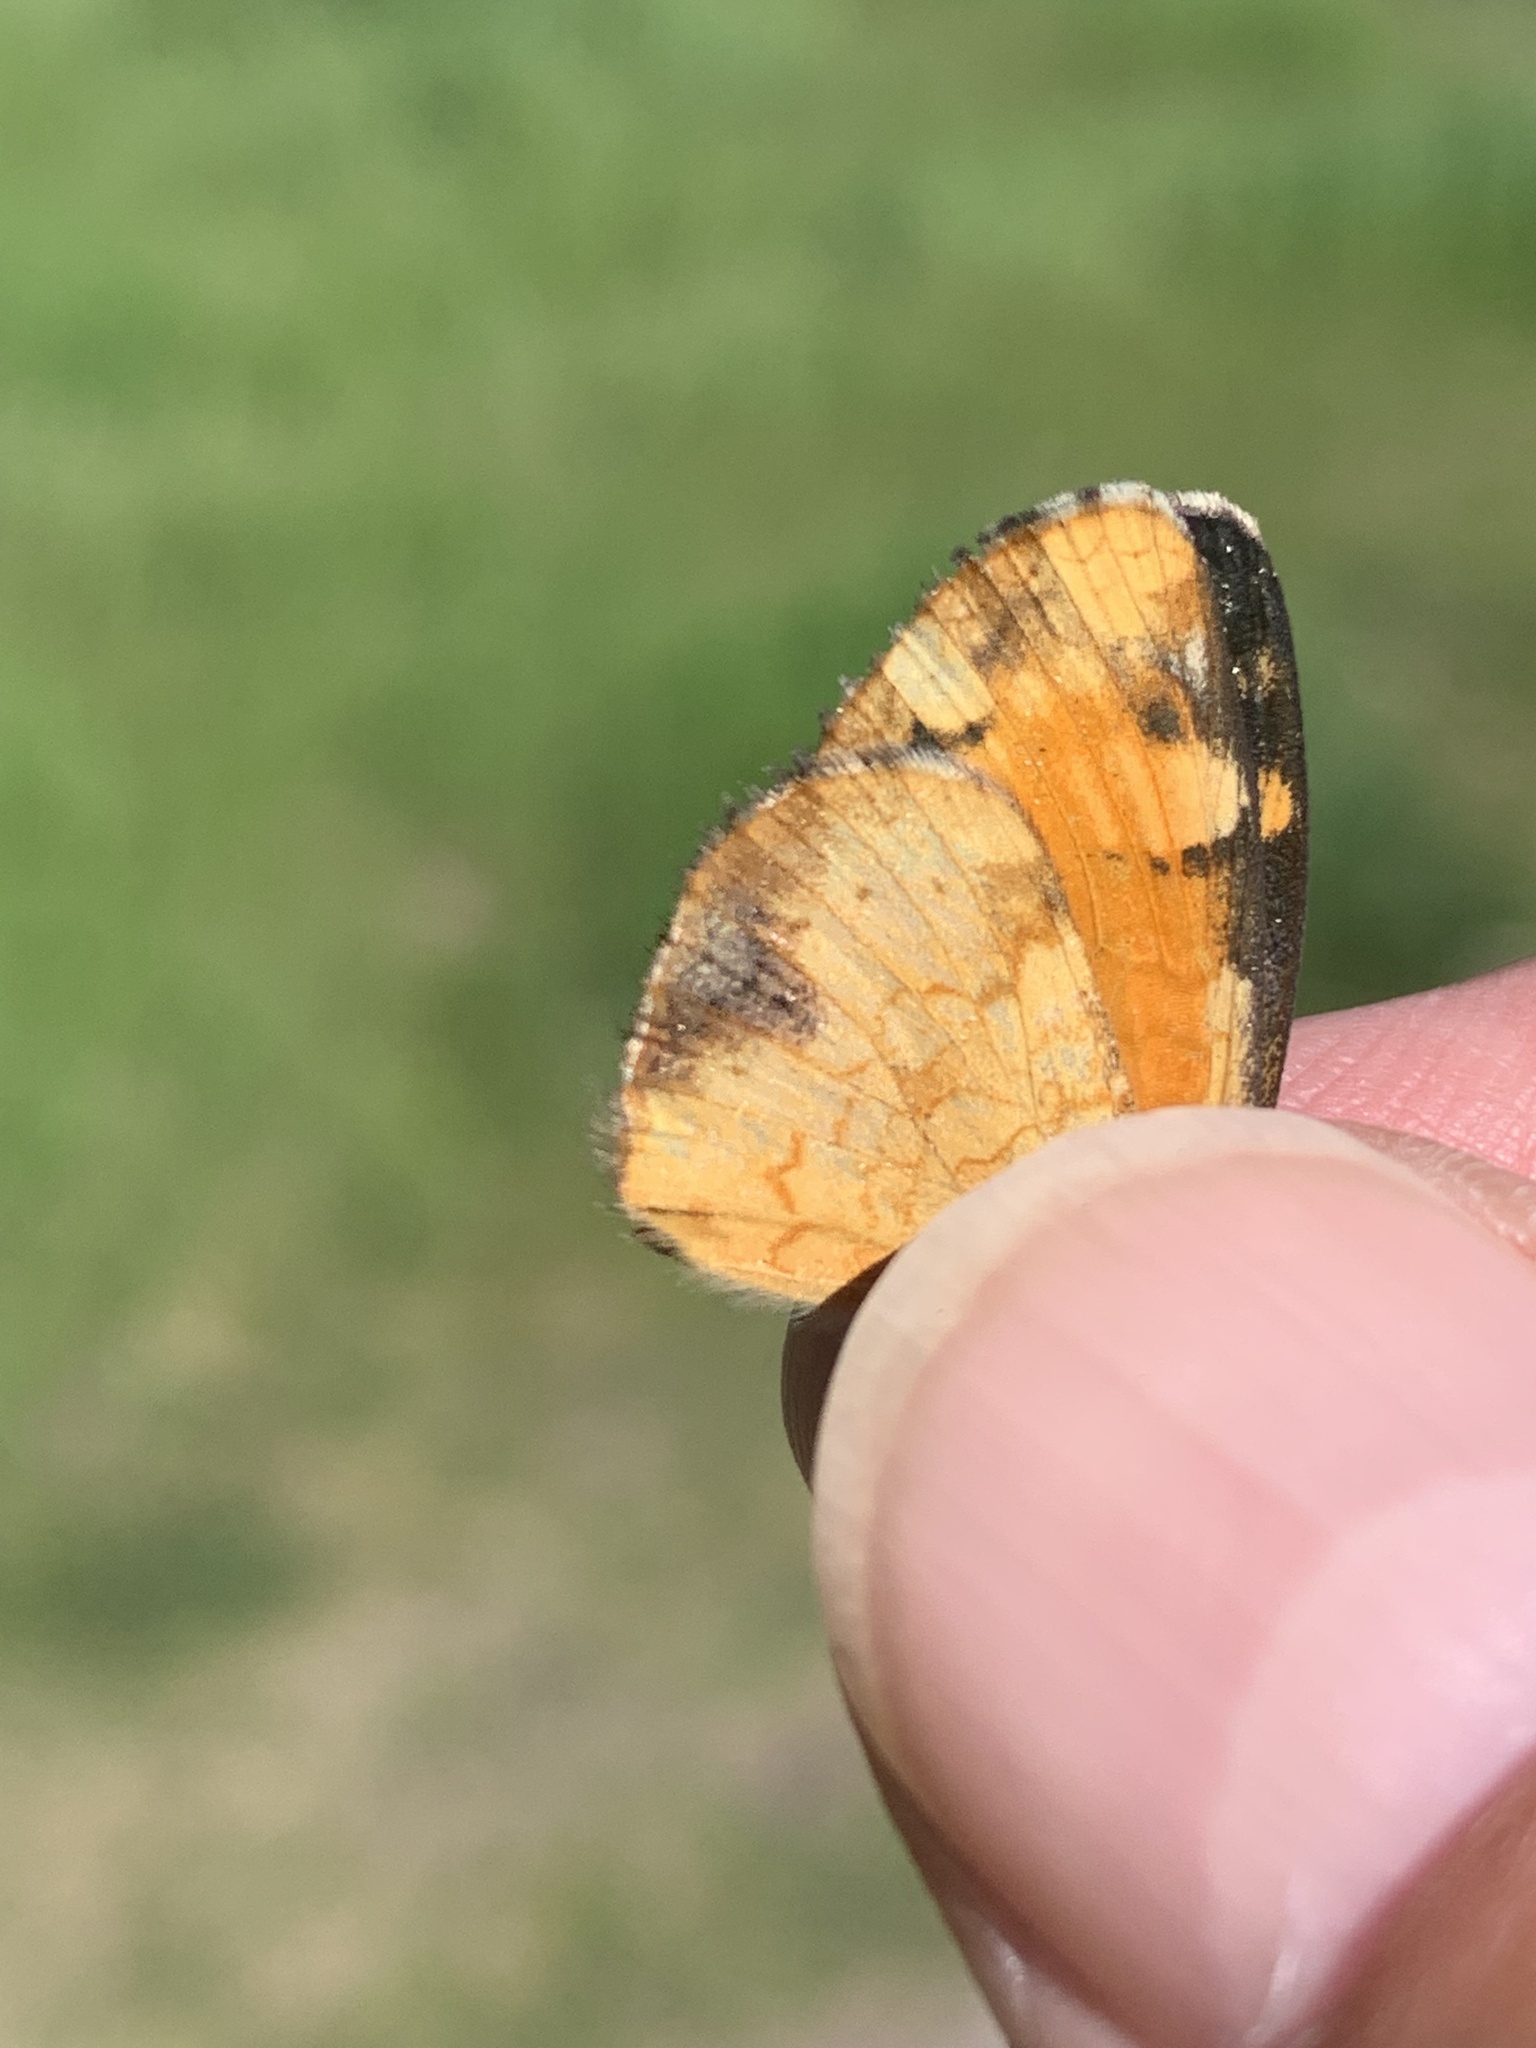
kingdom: Animalia
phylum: Arthropoda
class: Insecta
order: Lepidoptera
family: Nymphalidae
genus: Phyciodes
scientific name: Phyciodes tharos
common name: Pearl crescent
